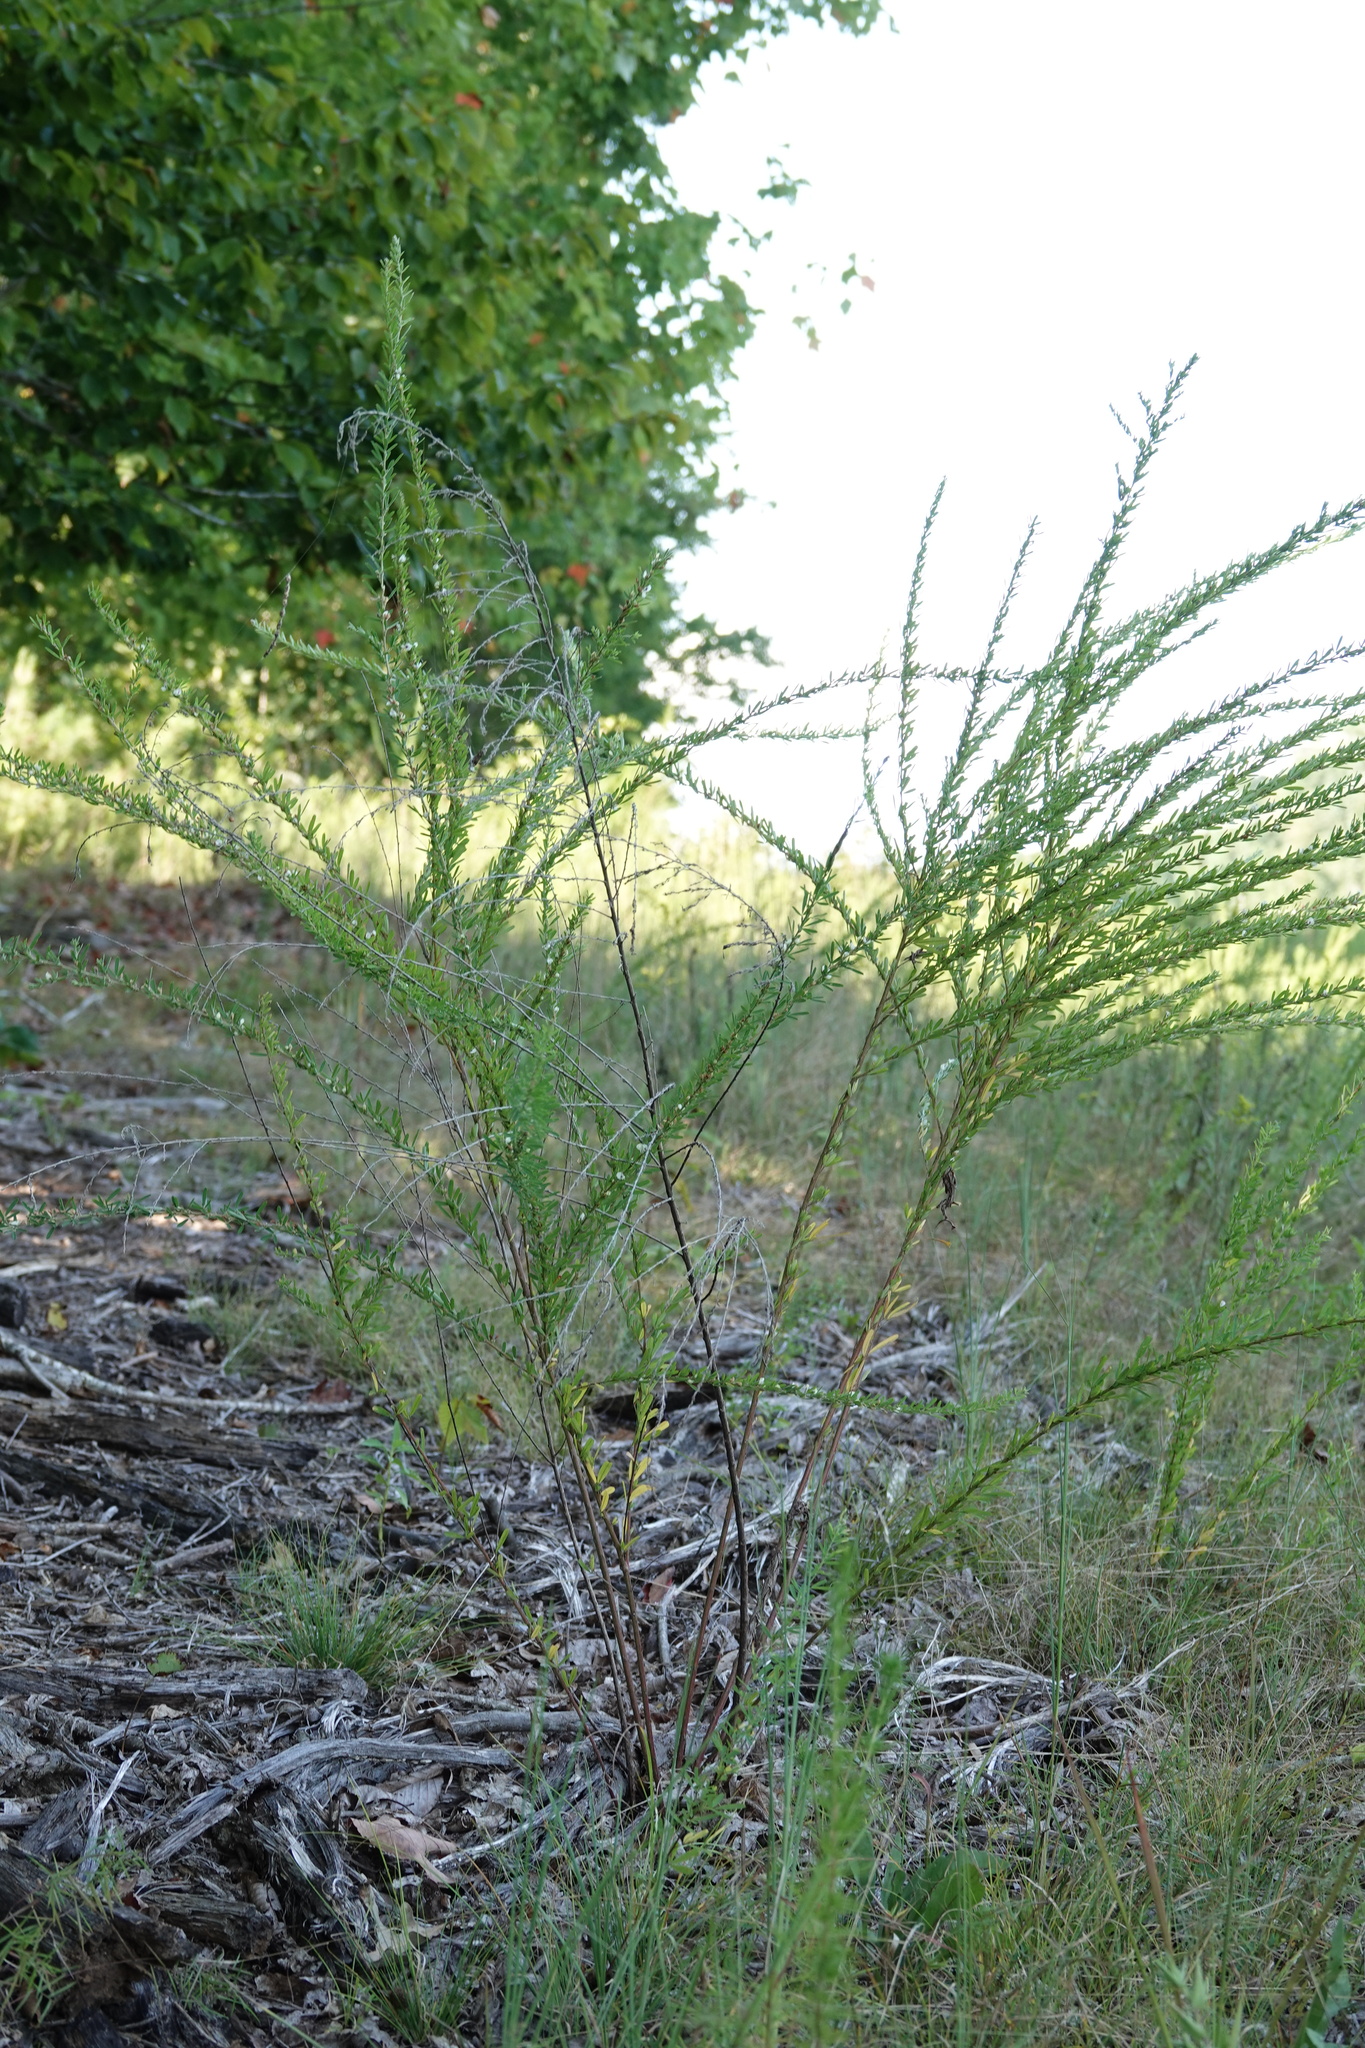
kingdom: Plantae
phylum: Tracheophyta
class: Magnoliopsida
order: Fabales
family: Fabaceae
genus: Lespedeza
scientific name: Lespedeza cuneata
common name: Chinese bush-clover
